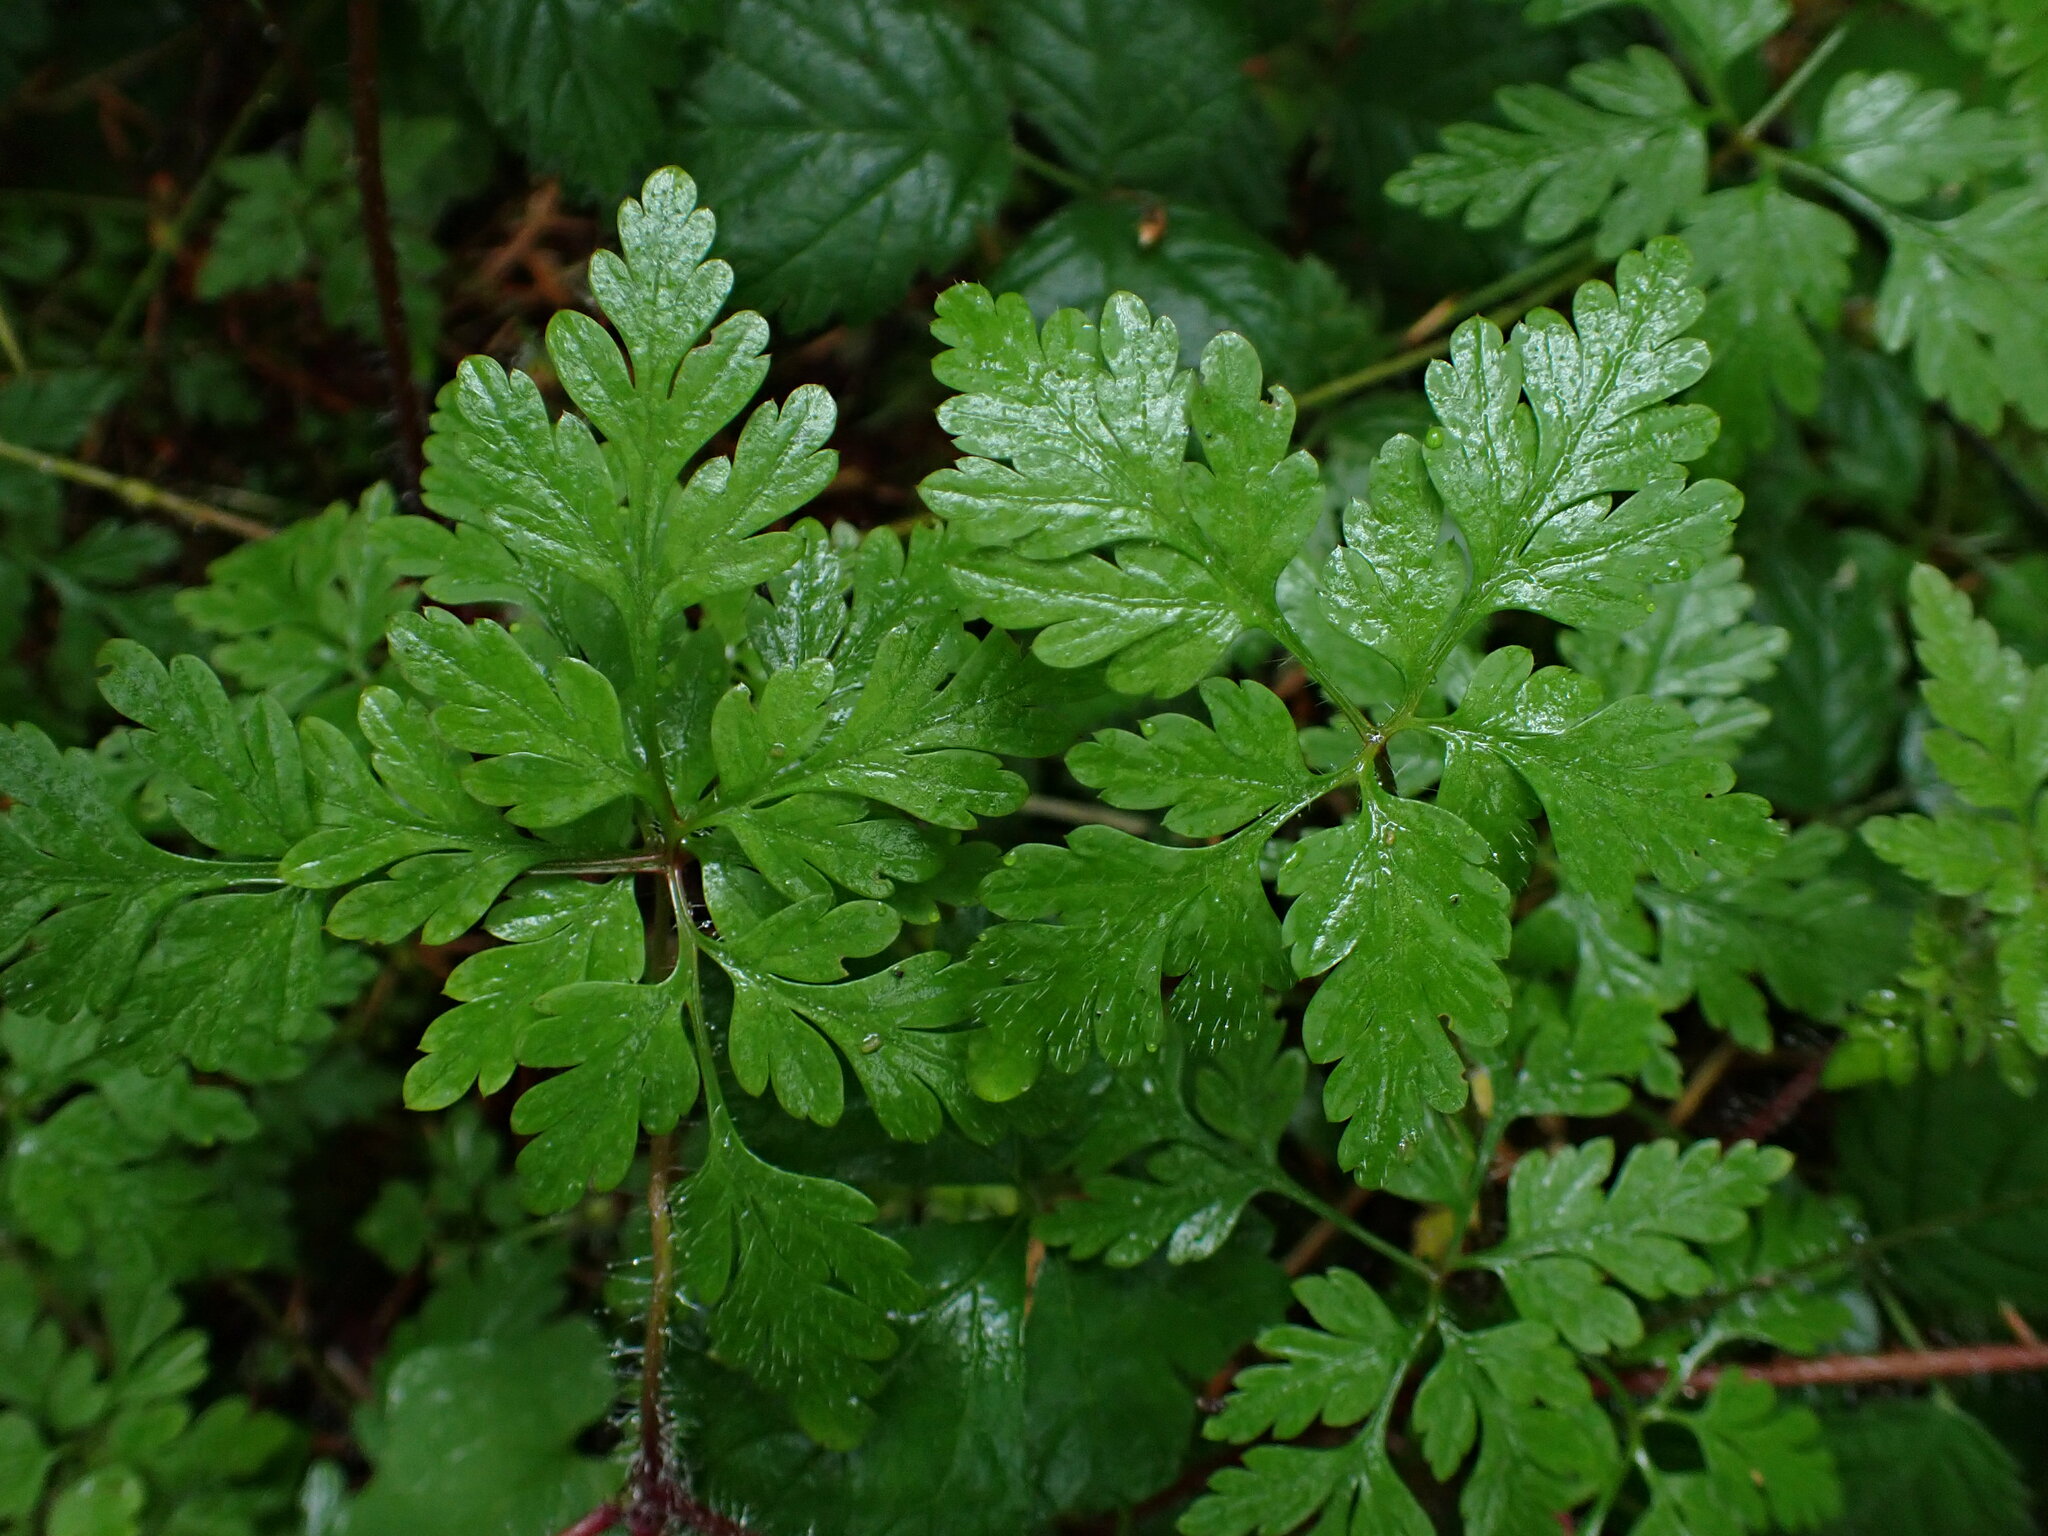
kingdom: Plantae
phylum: Tracheophyta
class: Magnoliopsida
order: Geraniales
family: Geraniaceae
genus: Geranium
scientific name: Geranium robertianum
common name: Herb-robert
